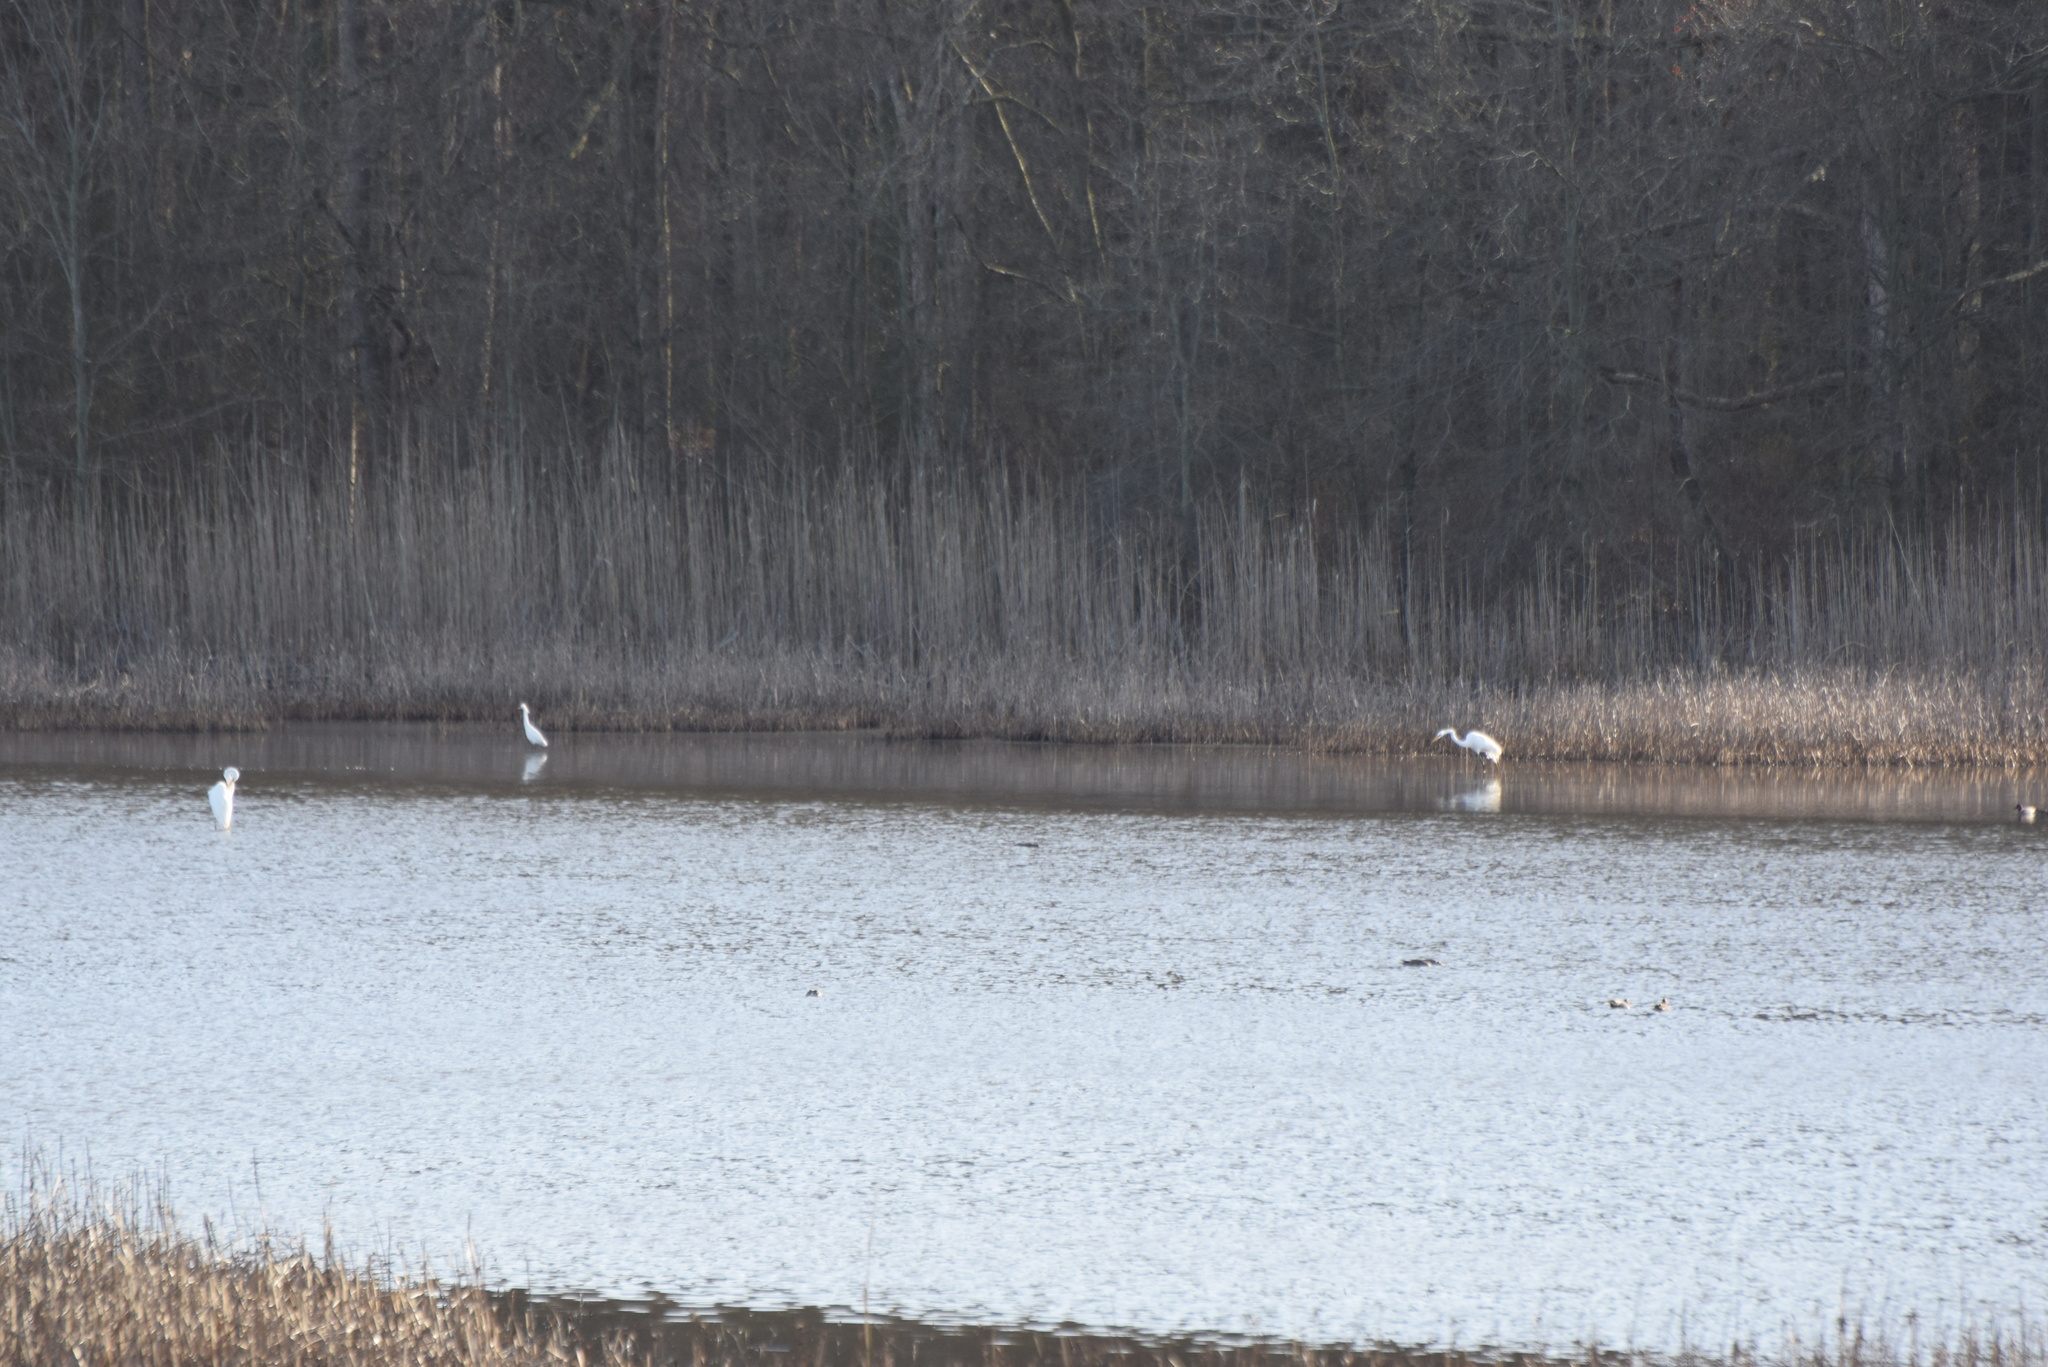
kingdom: Animalia
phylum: Chordata
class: Aves
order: Pelecaniformes
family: Ardeidae
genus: Ardea
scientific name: Ardea alba
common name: Great egret
